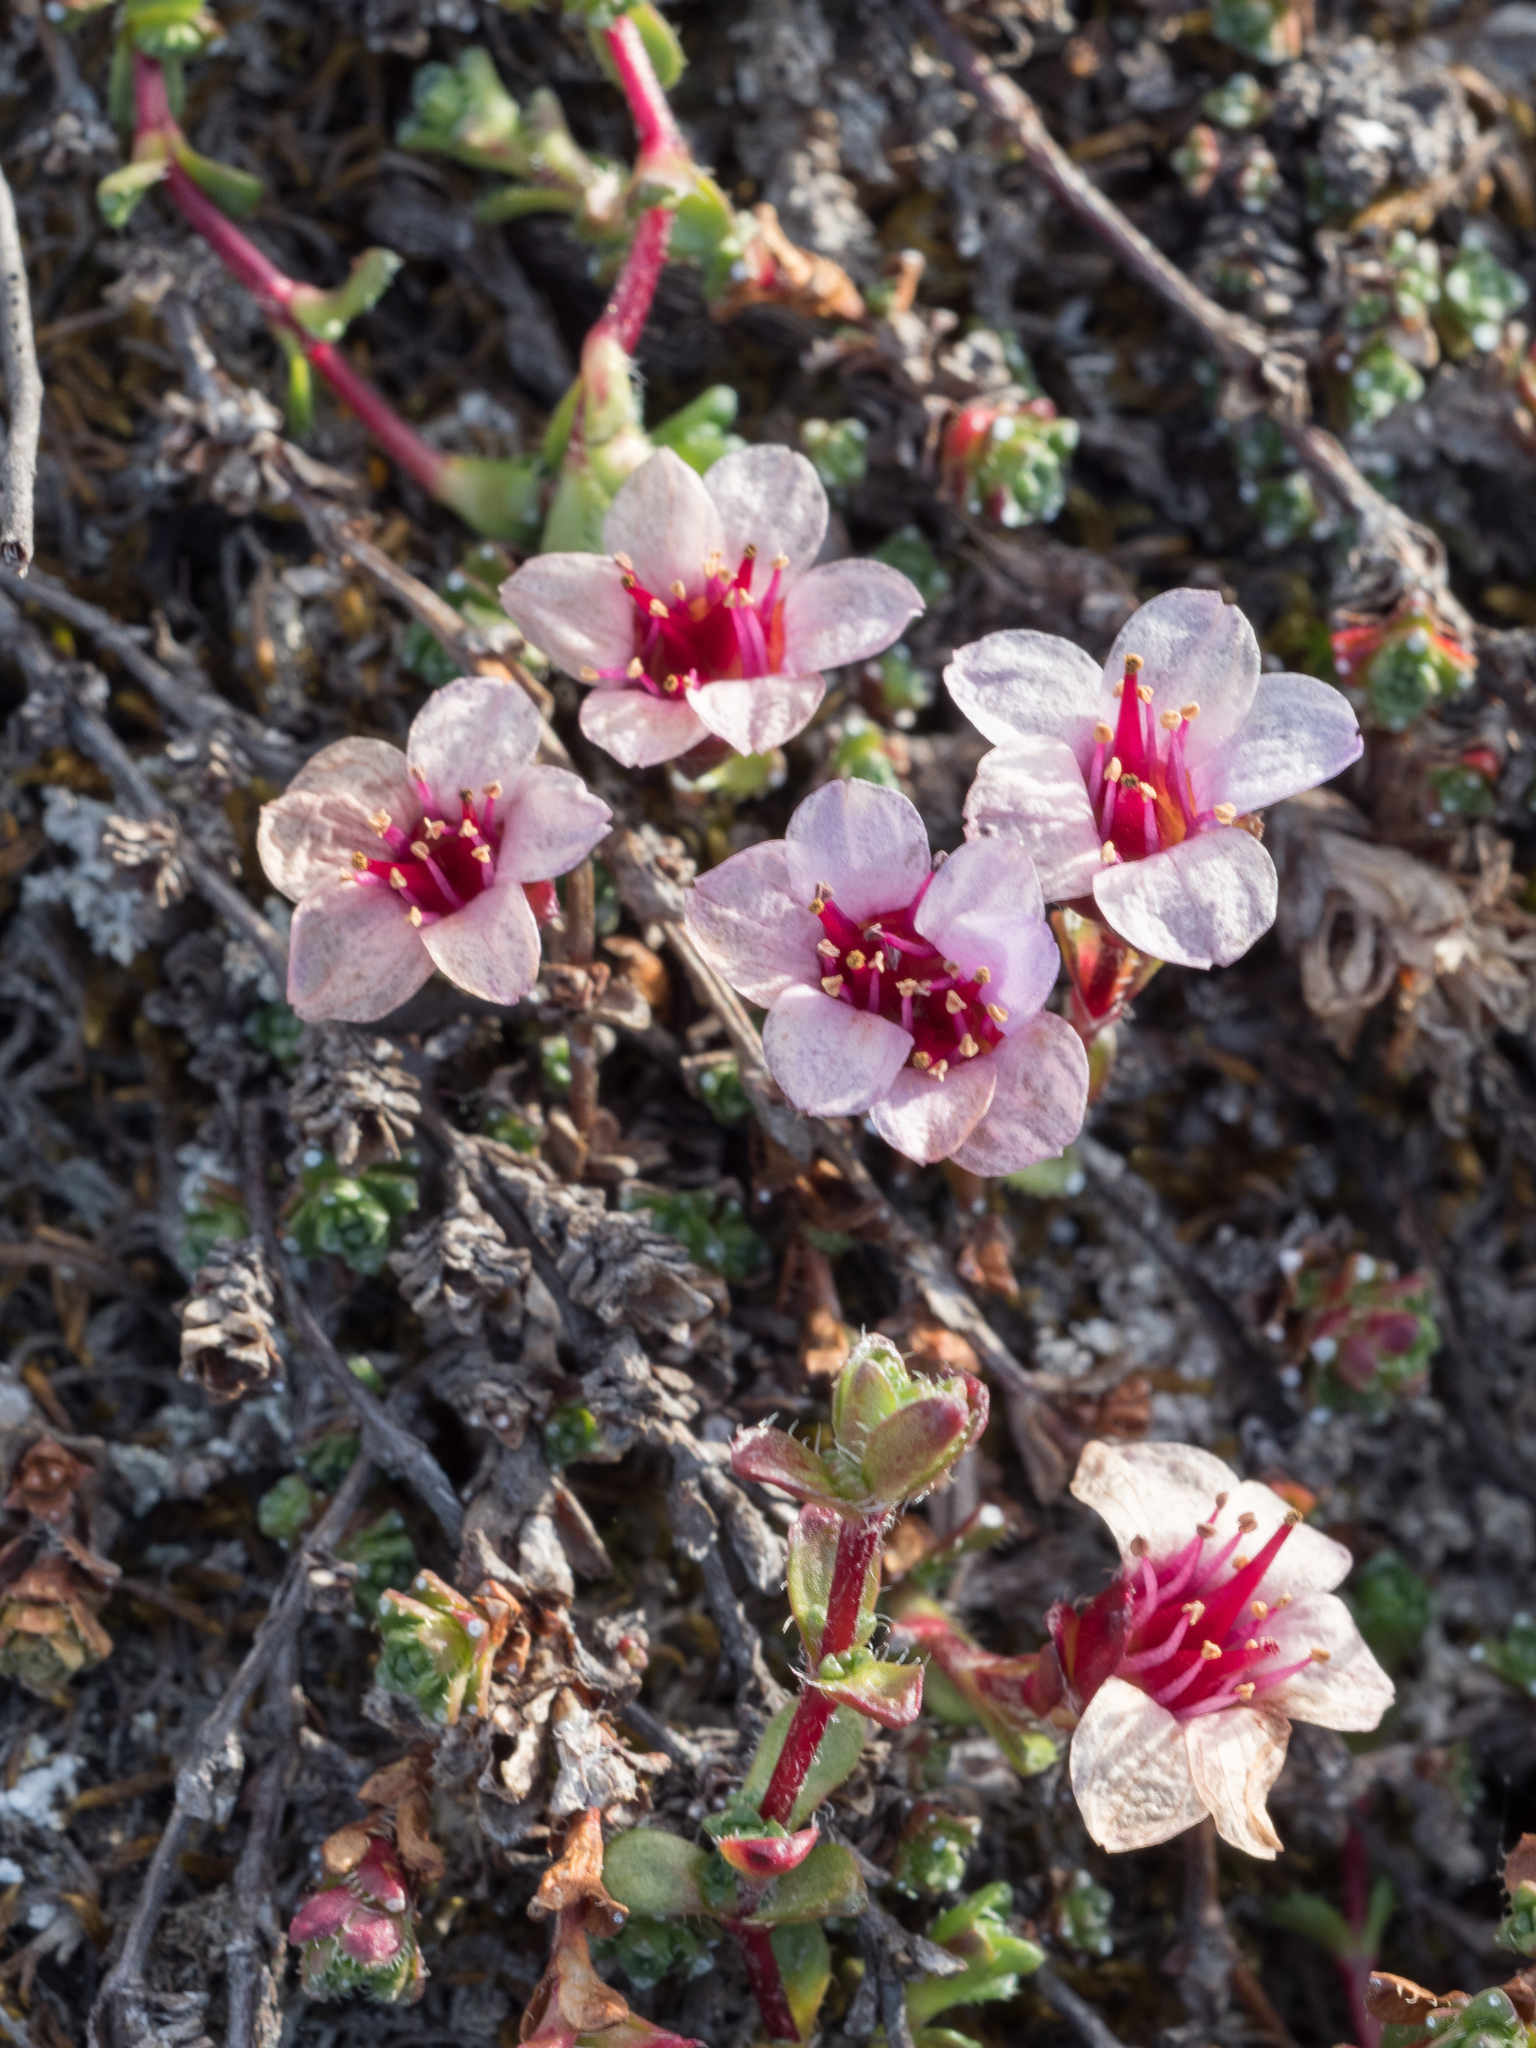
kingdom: Plantae
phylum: Tracheophyta
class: Magnoliopsida
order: Saxifragales
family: Saxifragaceae
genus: Saxifraga
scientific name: Saxifraga oppositifolia
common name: Purple saxifrage
